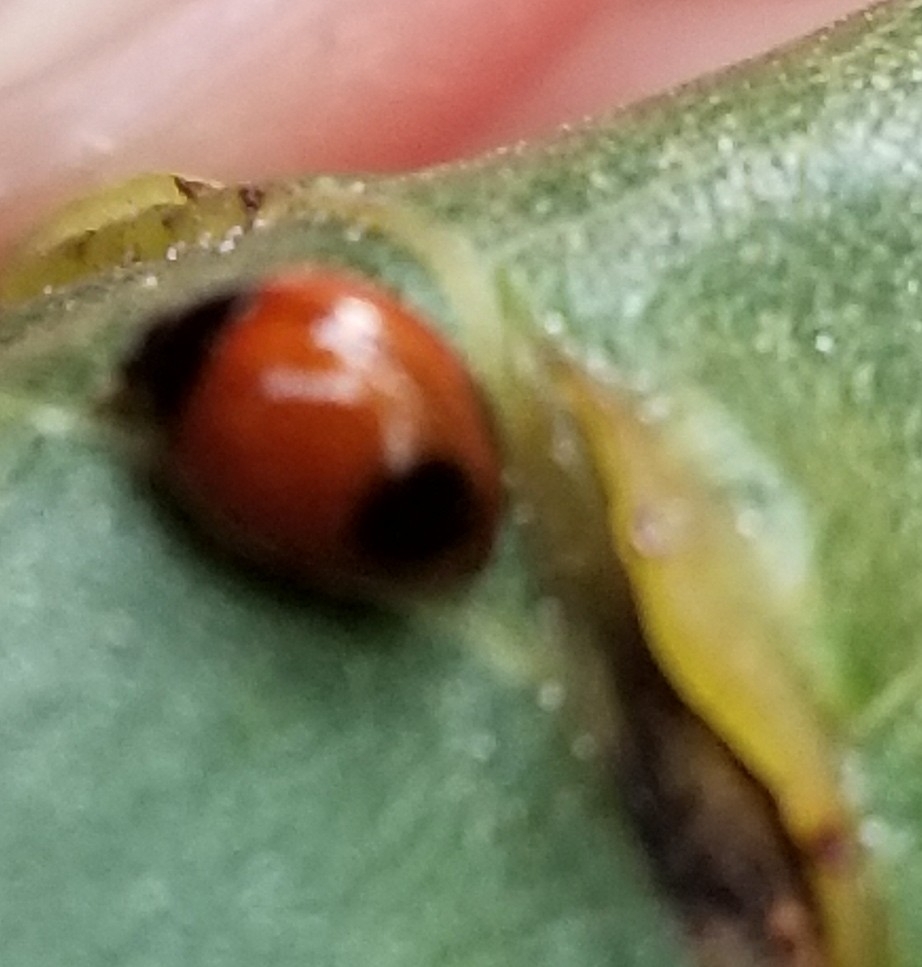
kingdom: Animalia
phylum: Arthropoda
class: Insecta
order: Coleoptera
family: Coccinellidae
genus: Exochomus
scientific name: Exochomus childreni
